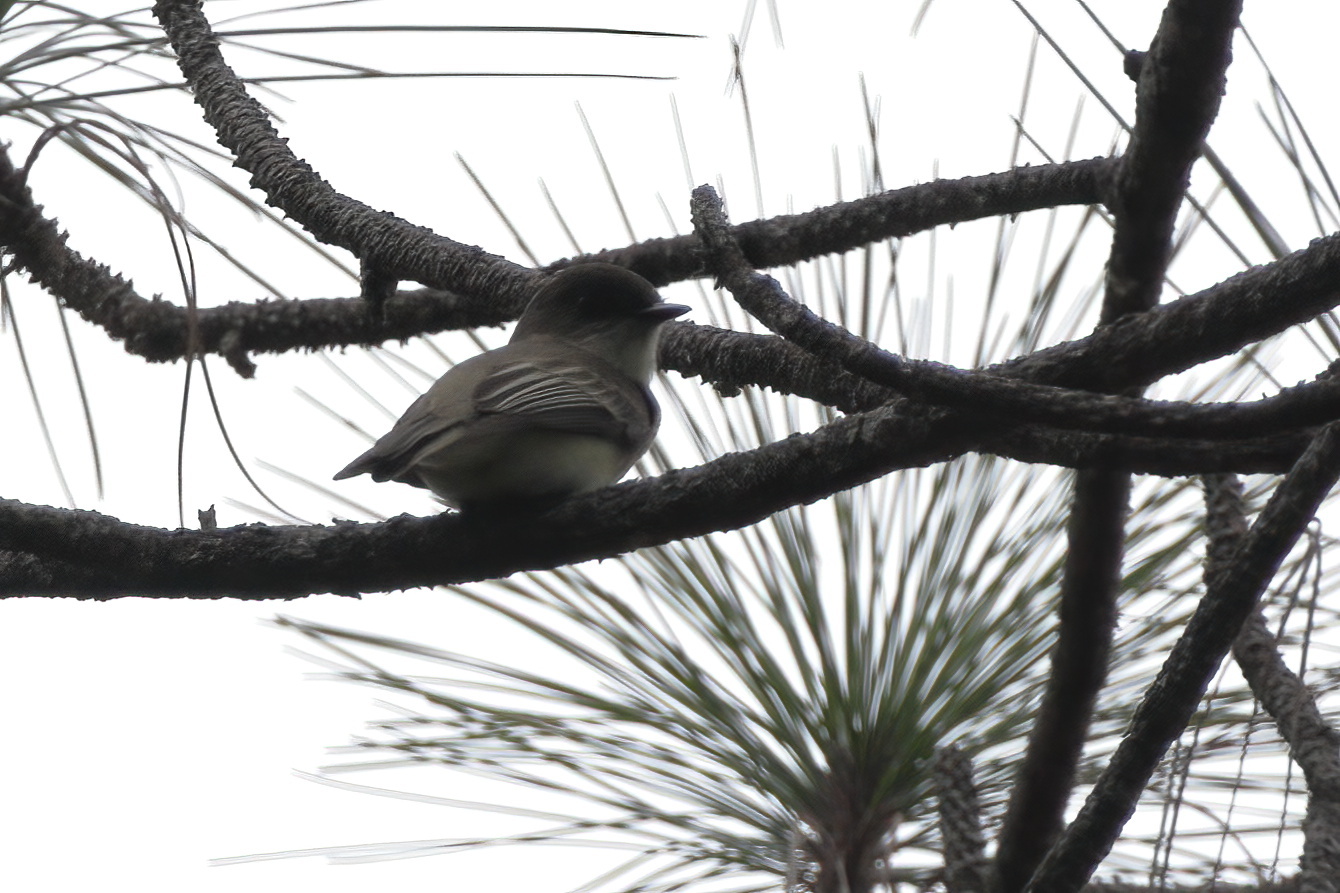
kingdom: Animalia
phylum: Chordata
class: Aves
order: Passeriformes
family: Tyrannidae
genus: Sayornis
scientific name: Sayornis phoebe
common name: Eastern phoebe
